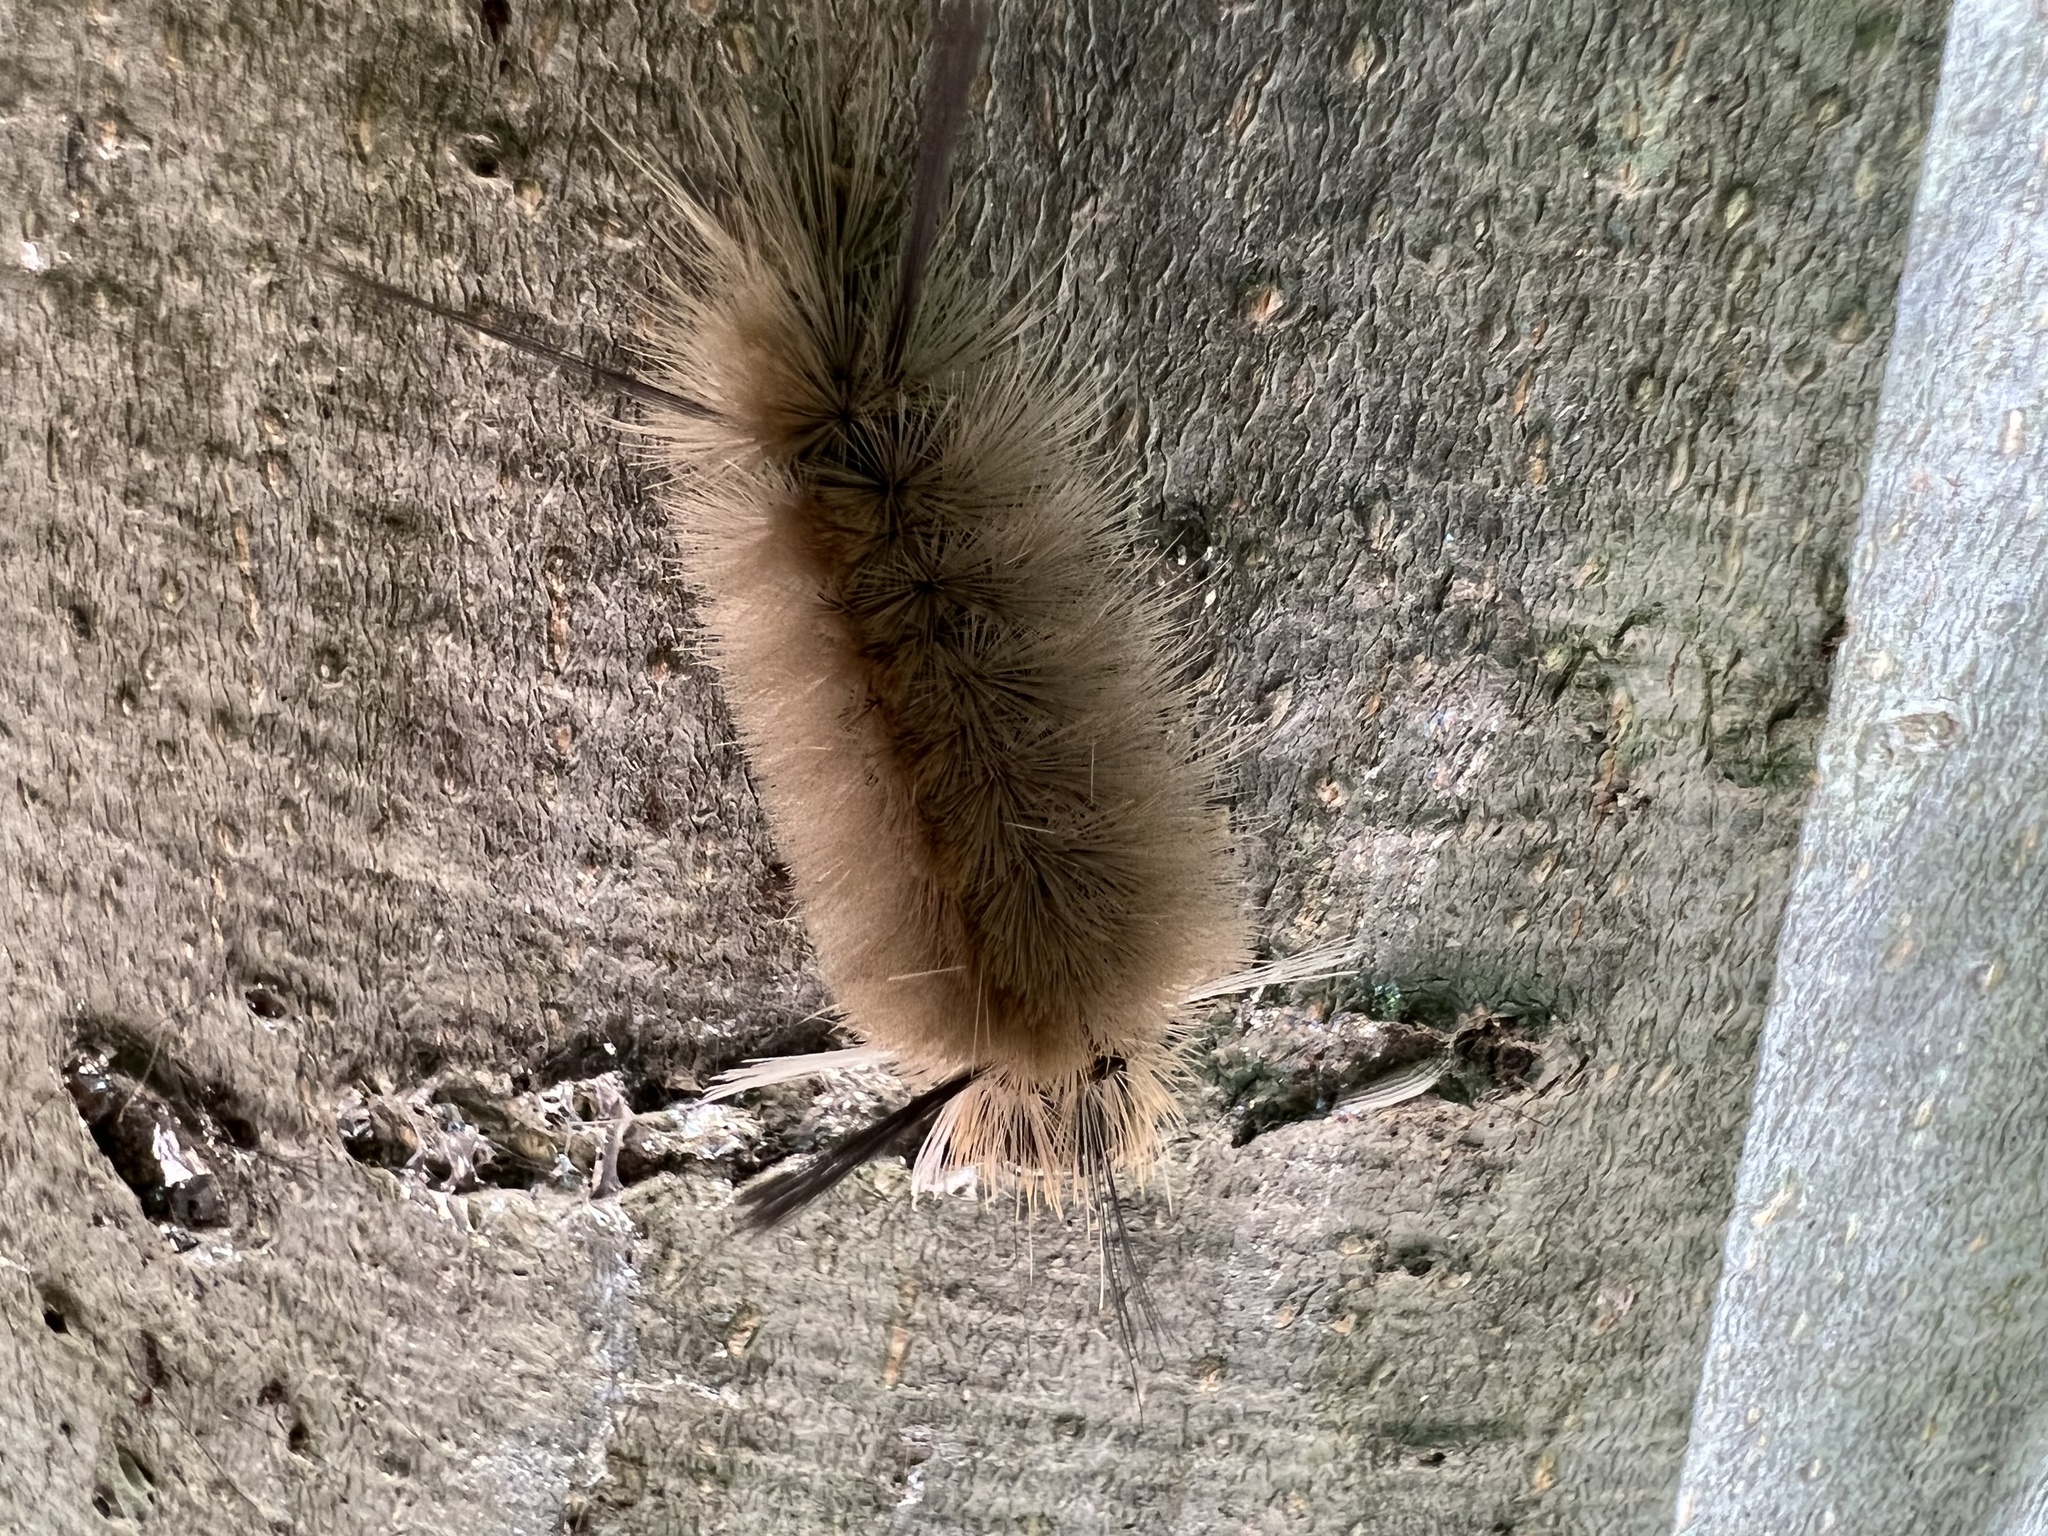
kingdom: Animalia
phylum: Arthropoda
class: Insecta
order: Lepidoptera
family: Erebidae
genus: Halysidota
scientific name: Halysidota tessellaris
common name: Banded tussock moth
